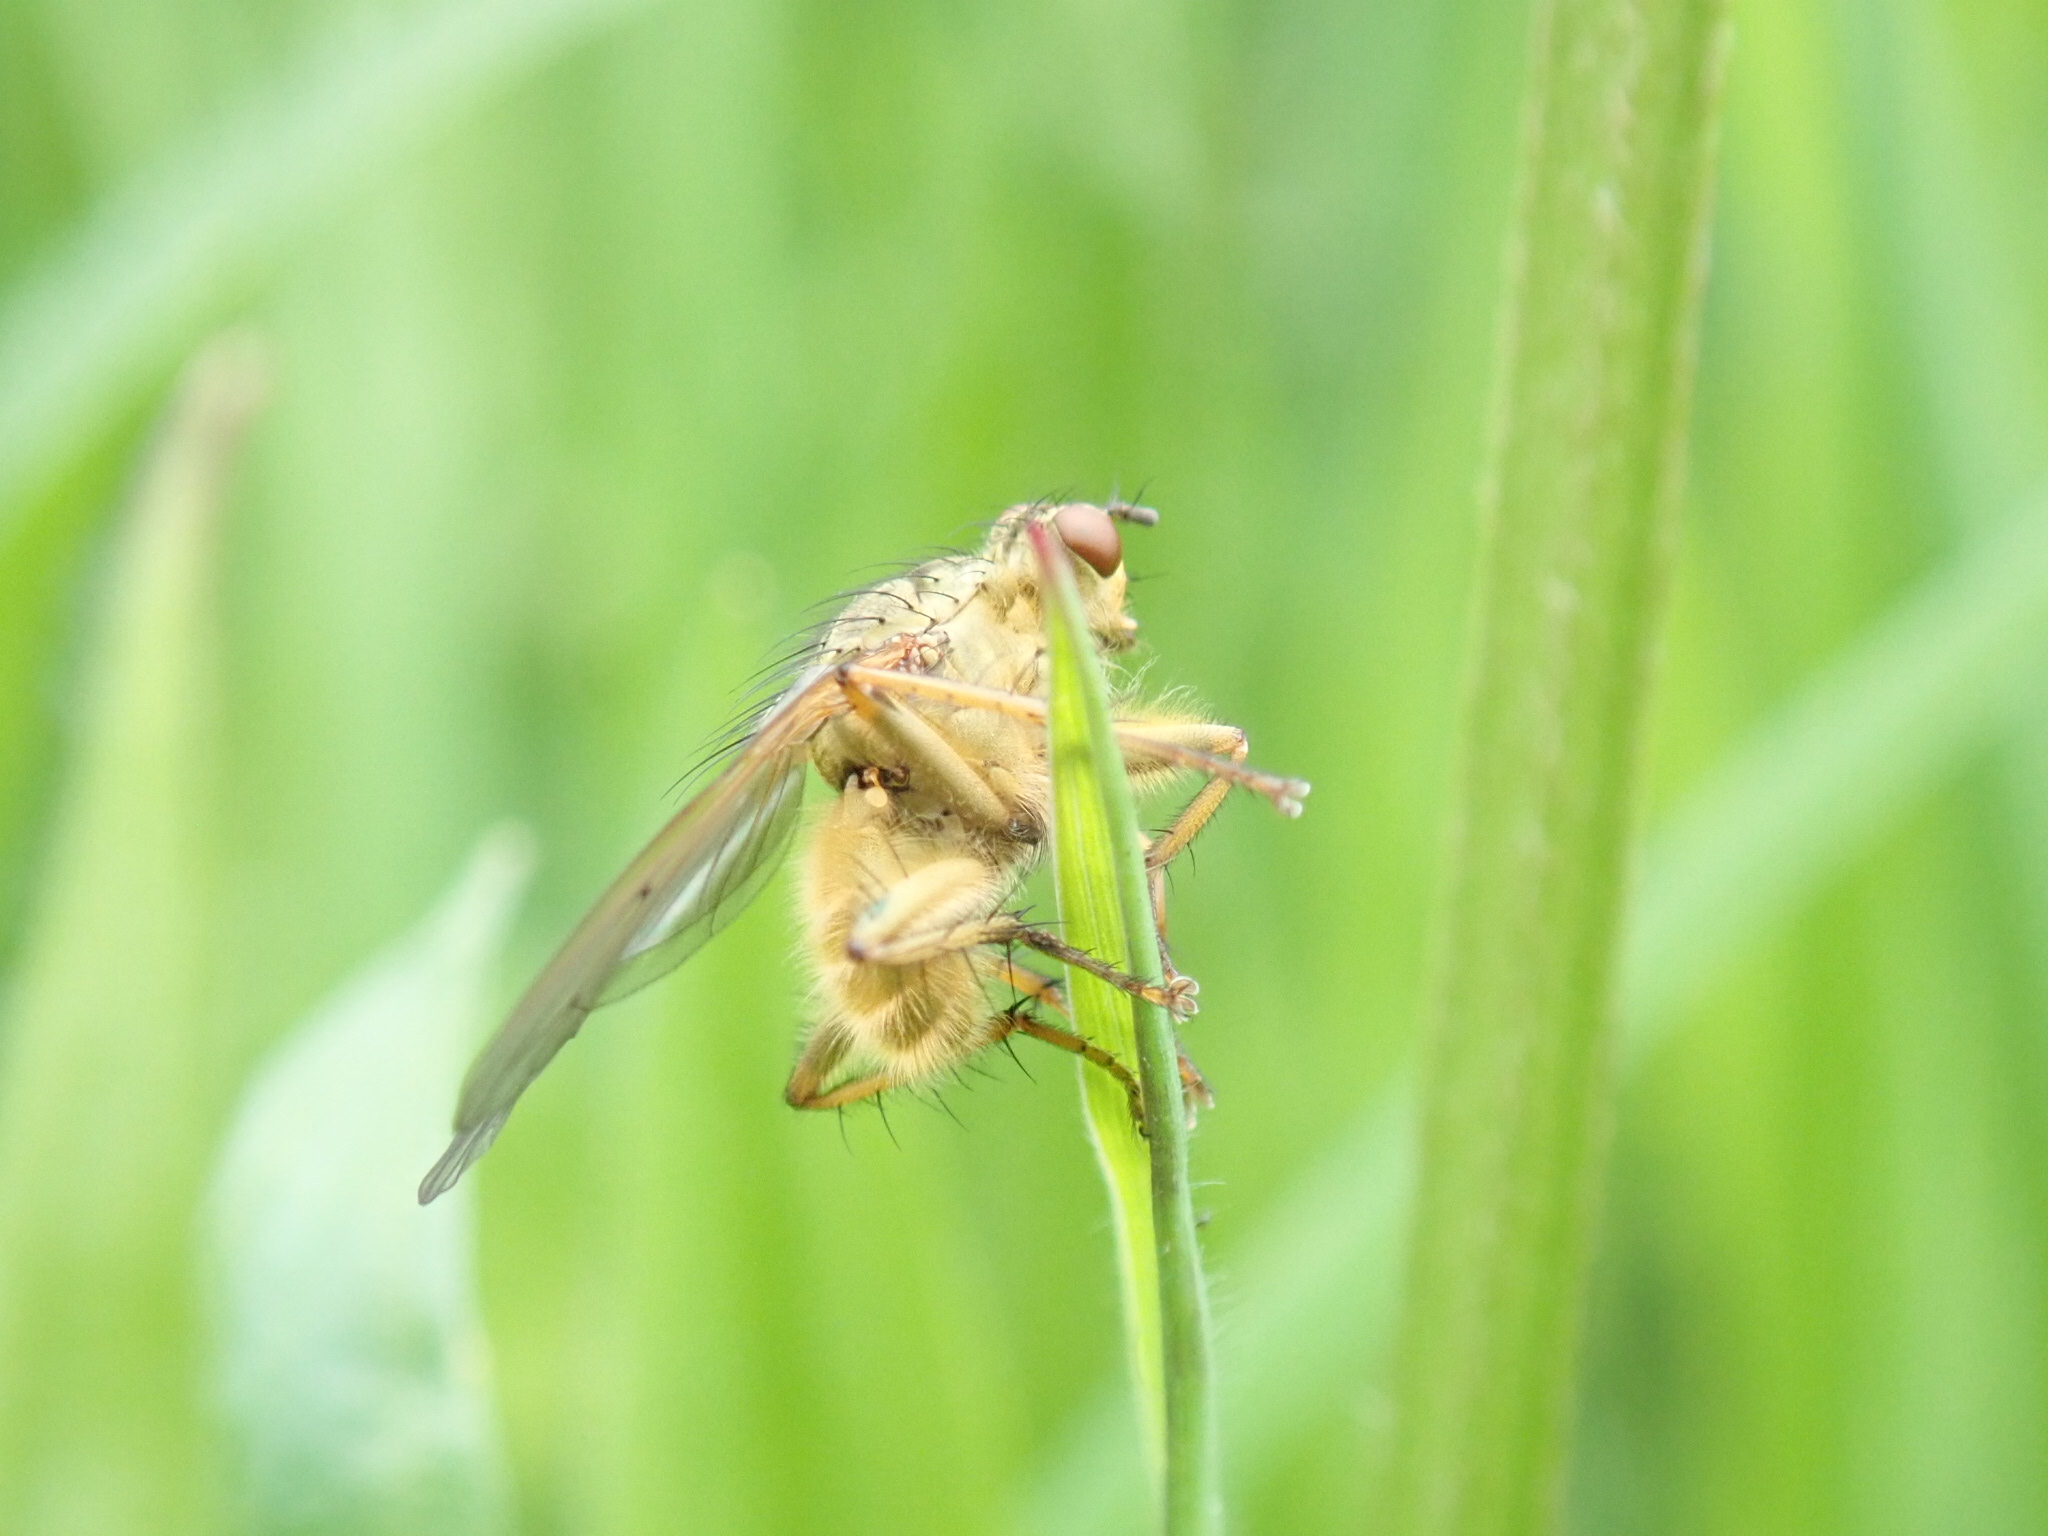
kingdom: Animalia
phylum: Arthropoda
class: Insecta
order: Diptera
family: Scathophagidae
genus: Scathophaga
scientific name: Scathophaga stercoraria
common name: Yellow dung fly
